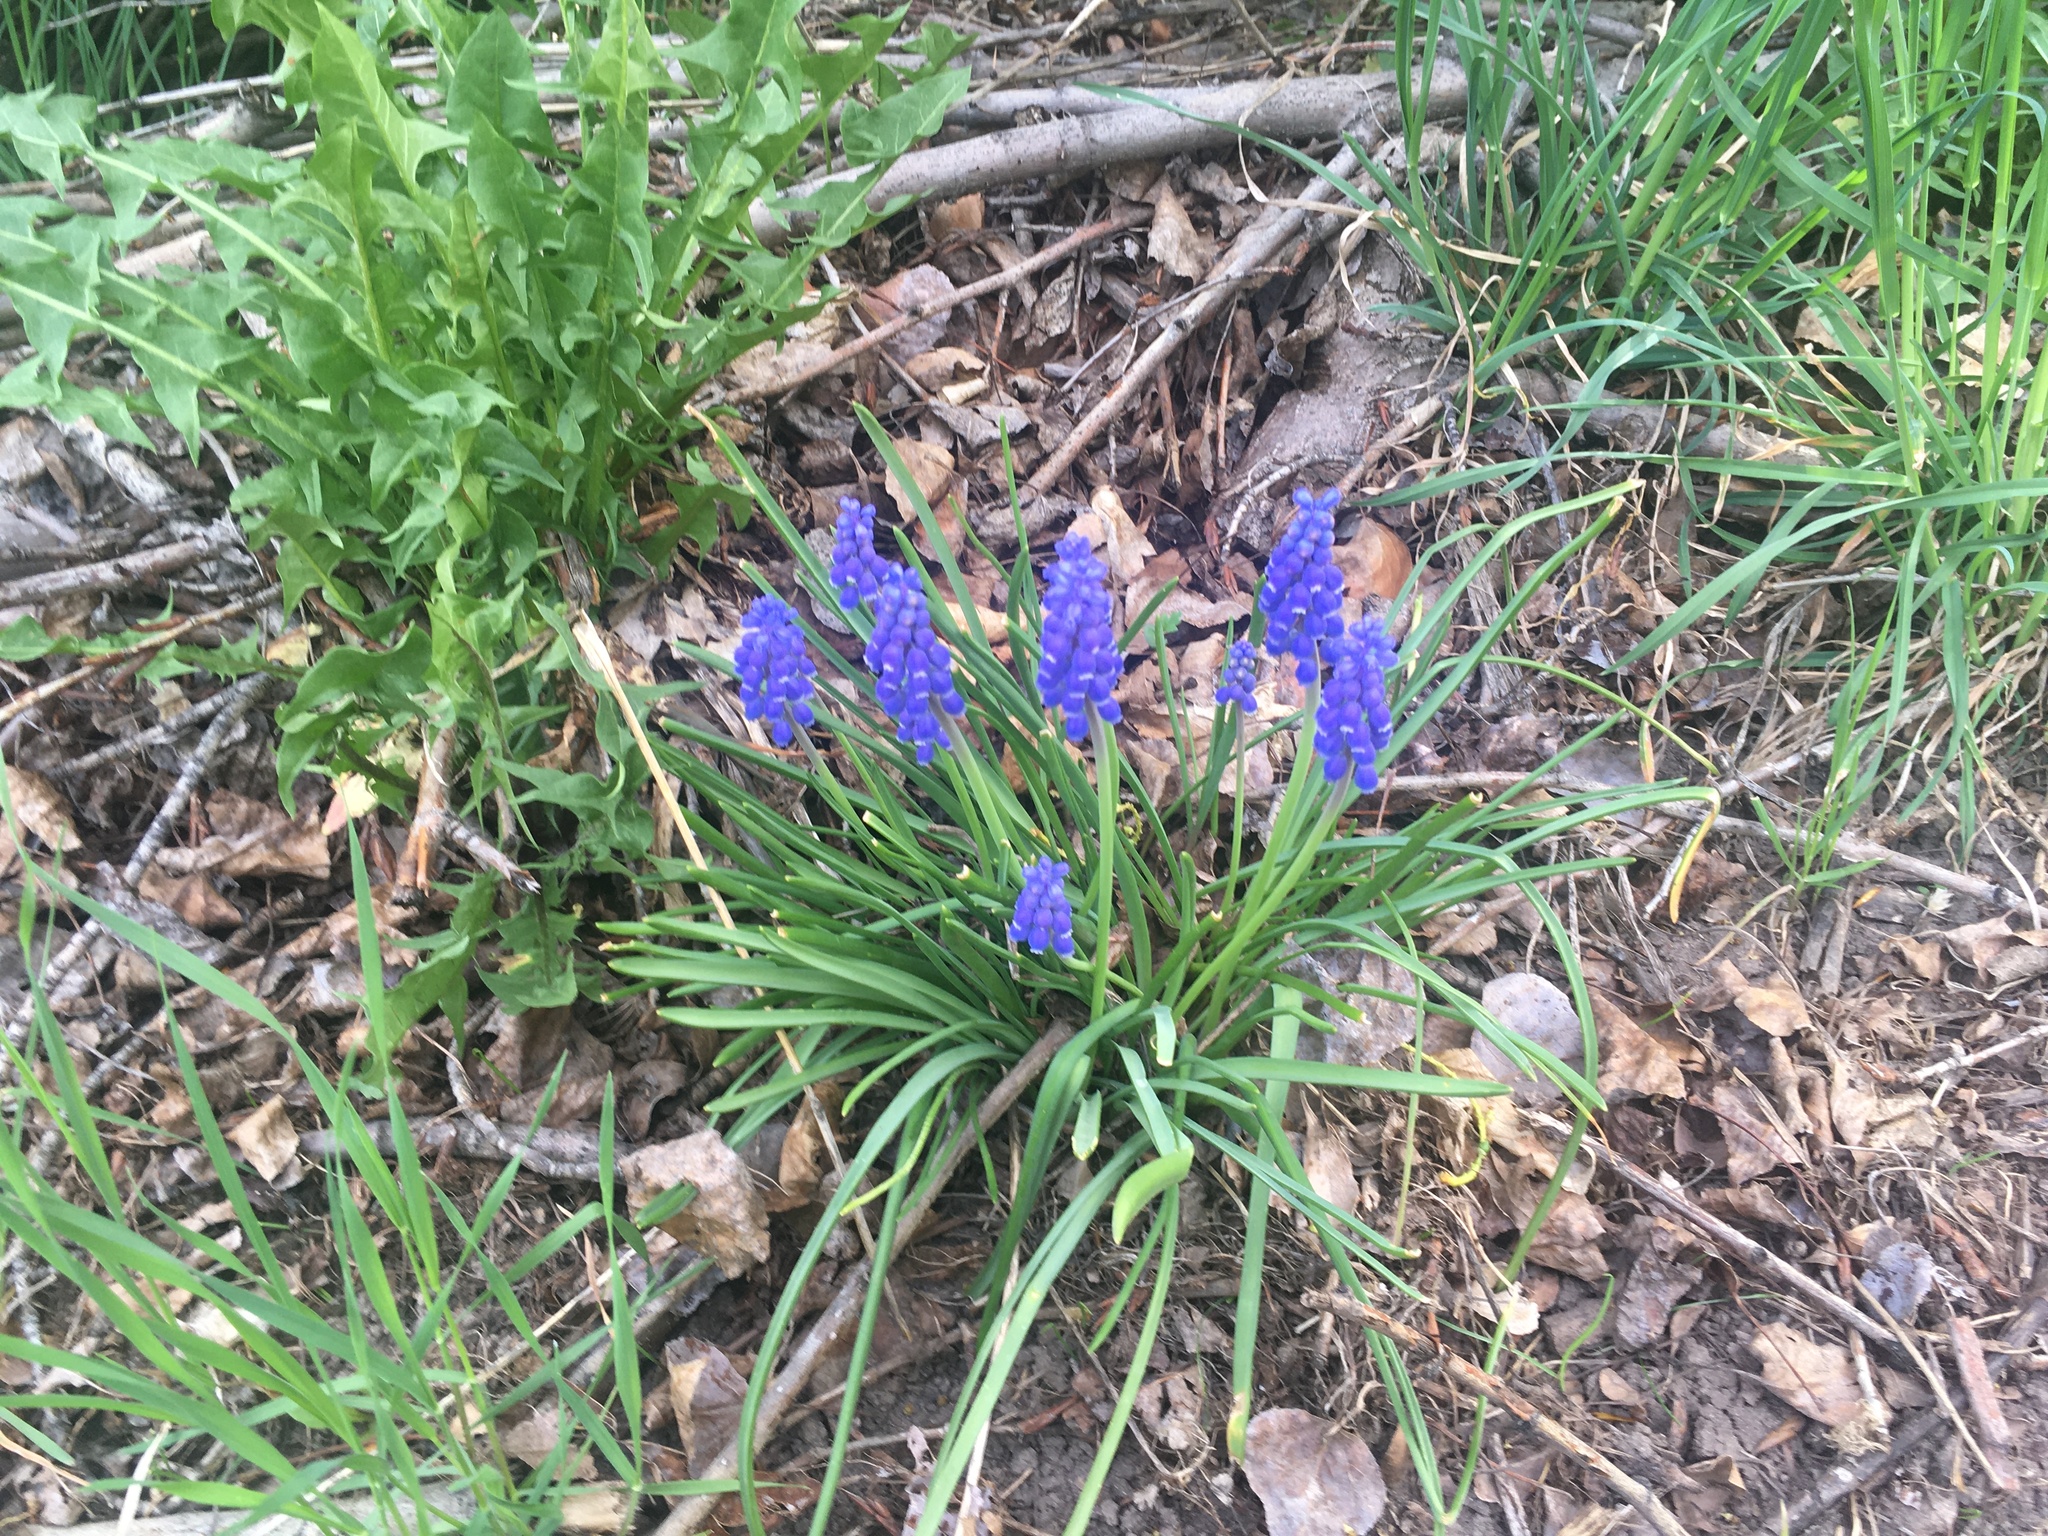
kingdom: Plantae
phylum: Tracheophyta
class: Liliopsida
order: Asparagales
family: Asparagaceae
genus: Muscari
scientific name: Muscari armeniacum
